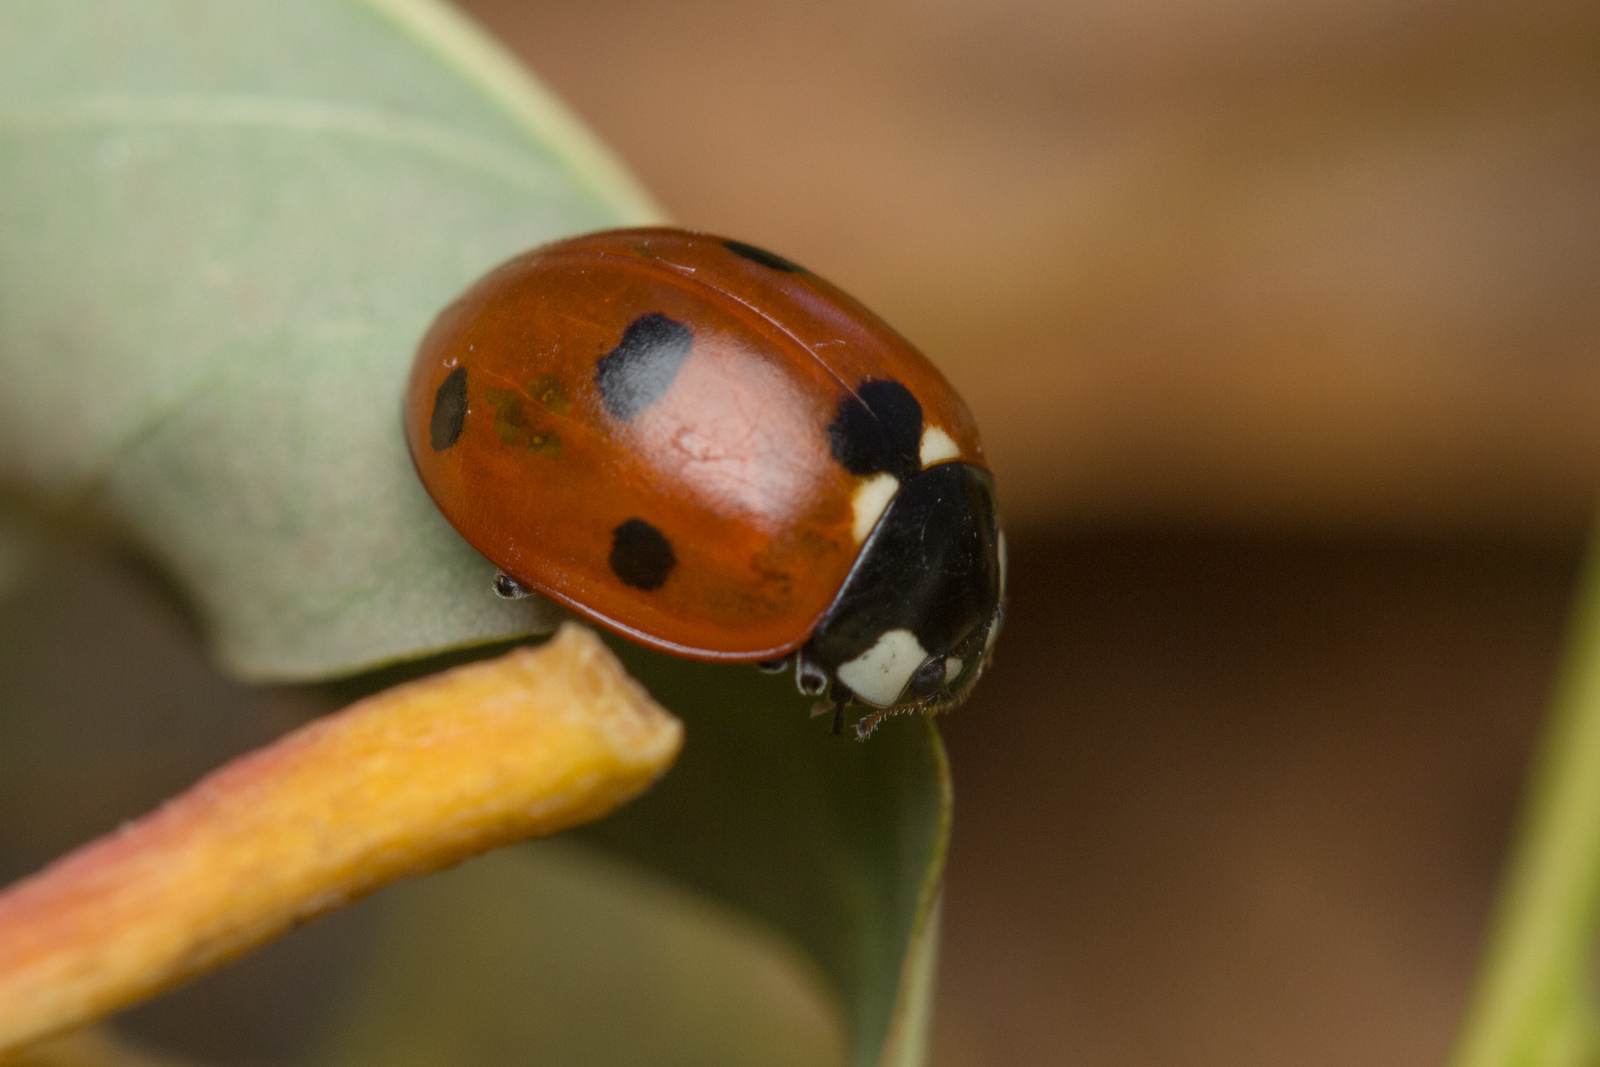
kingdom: Animalia
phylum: Arthropoda
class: Insecta
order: Coleoptera
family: Coccinellidae
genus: Coccinella
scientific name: Coccinella septempunctata
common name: Sevenspotted lady beetle
